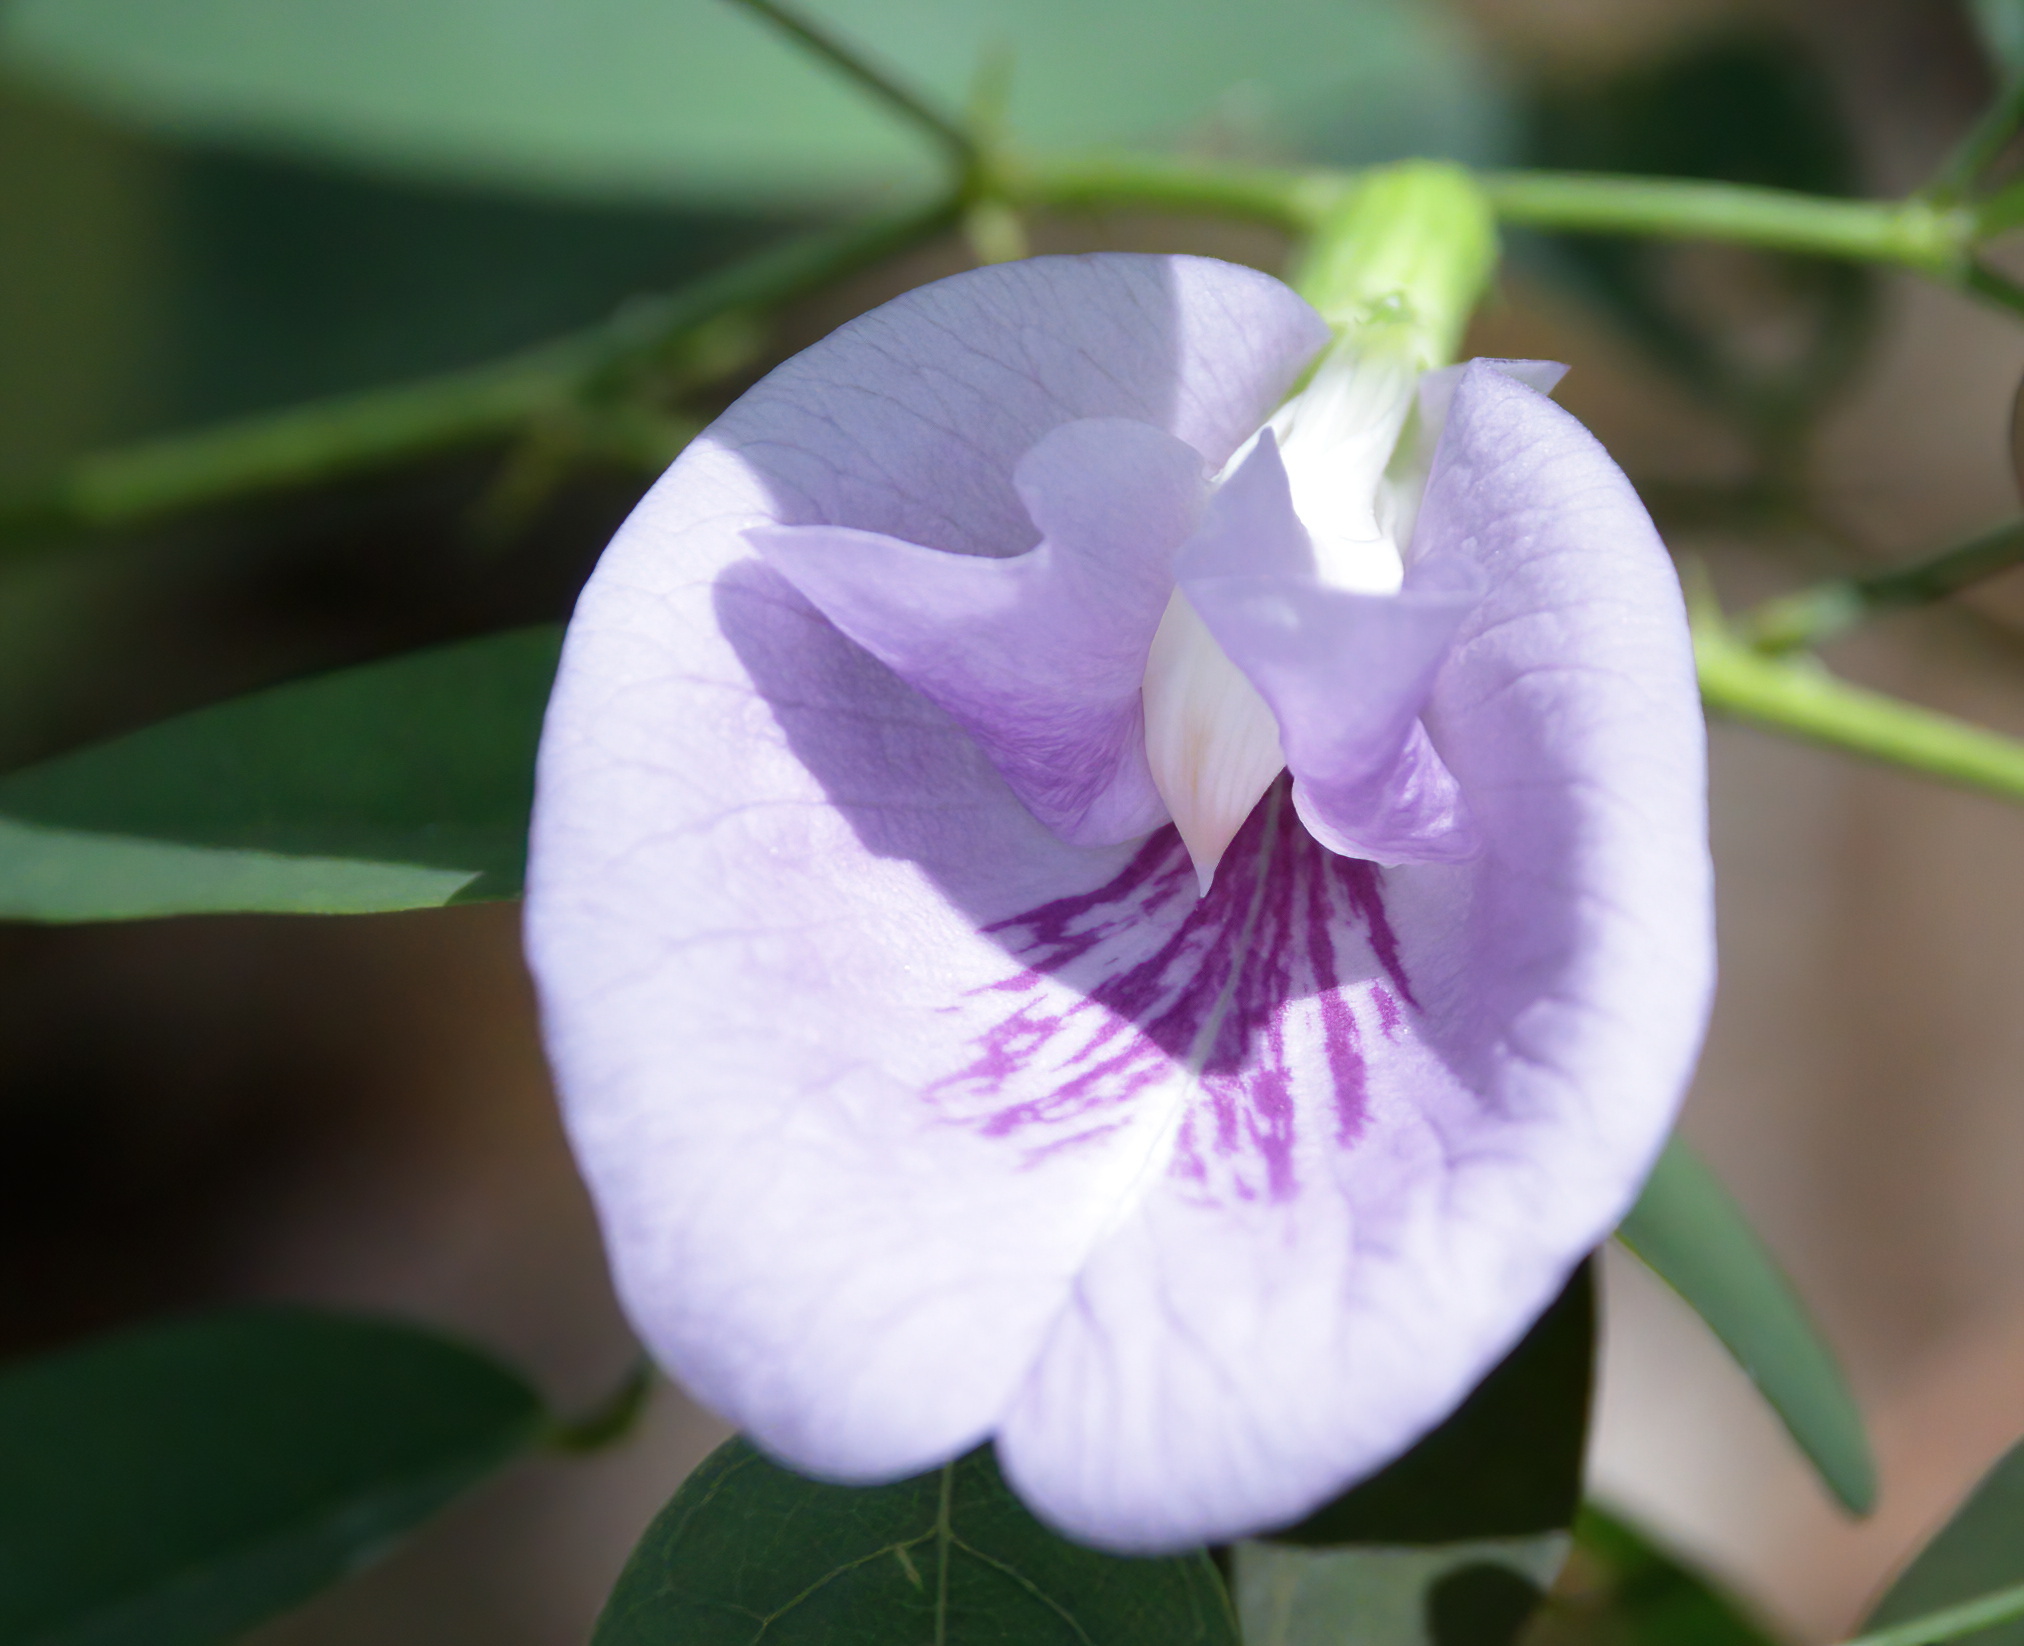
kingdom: Plantae
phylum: Tracheophyta
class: Magnoliopsida
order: Fabales
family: Fabaceae
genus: Clitoria
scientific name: Clitoria mariana
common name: Butterfly-pea
